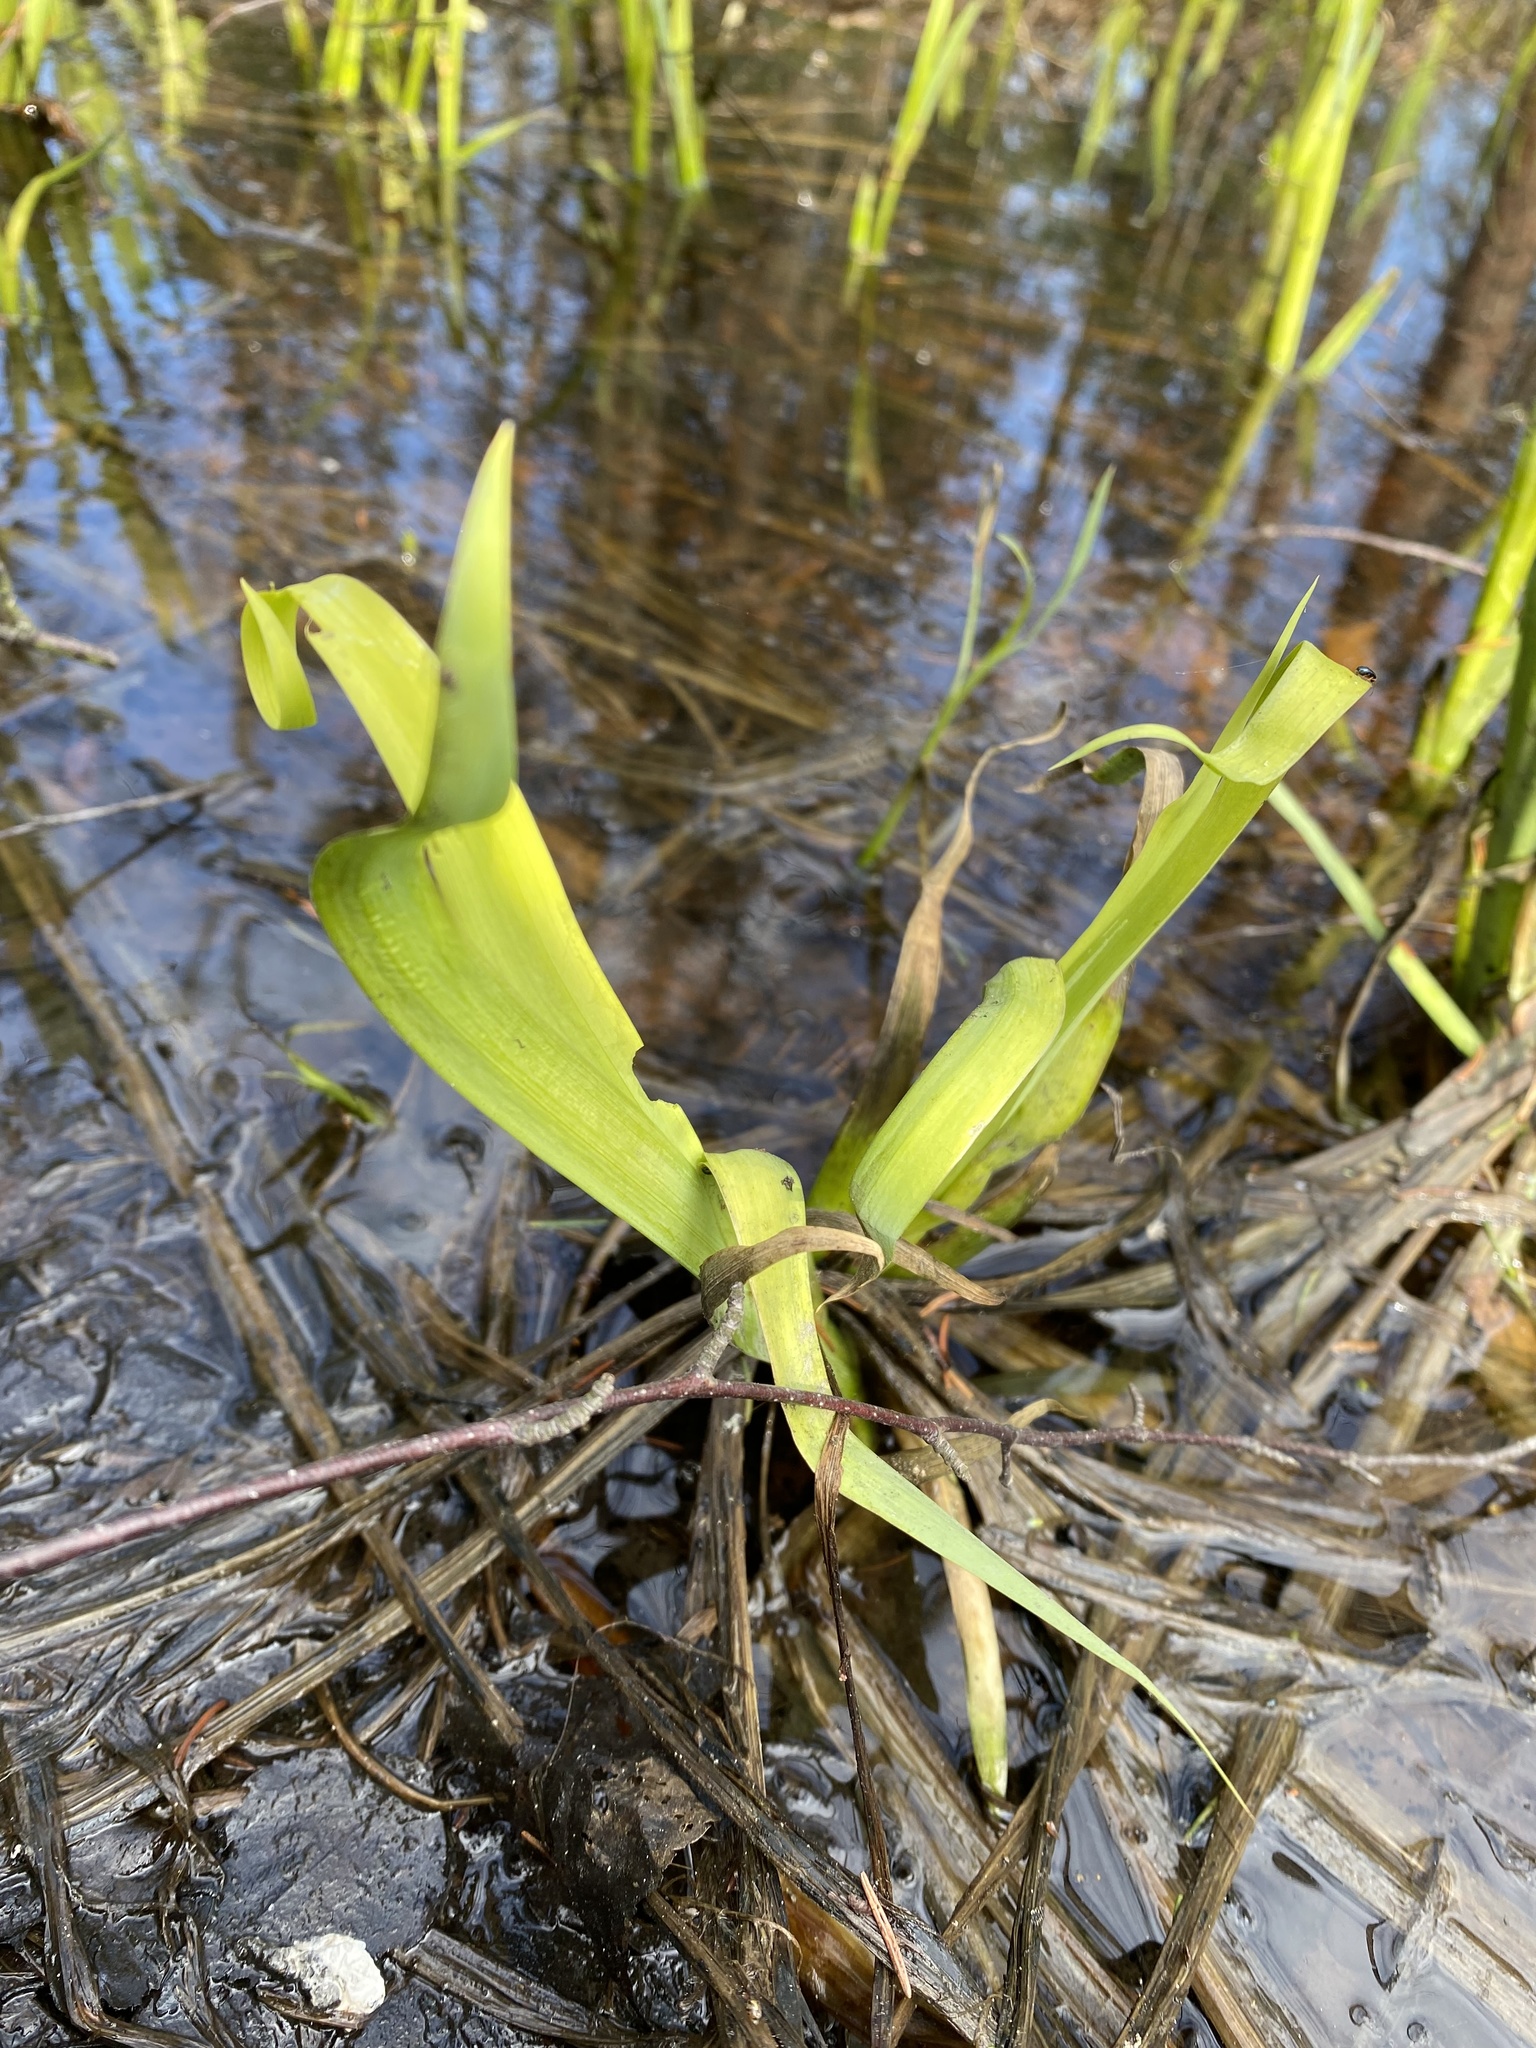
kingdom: Plantae
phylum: Tracheophyta
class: Liliopsida
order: Asparagales
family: Iridaceae
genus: Iris
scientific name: Iris pseudacorus
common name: Yellow flag
